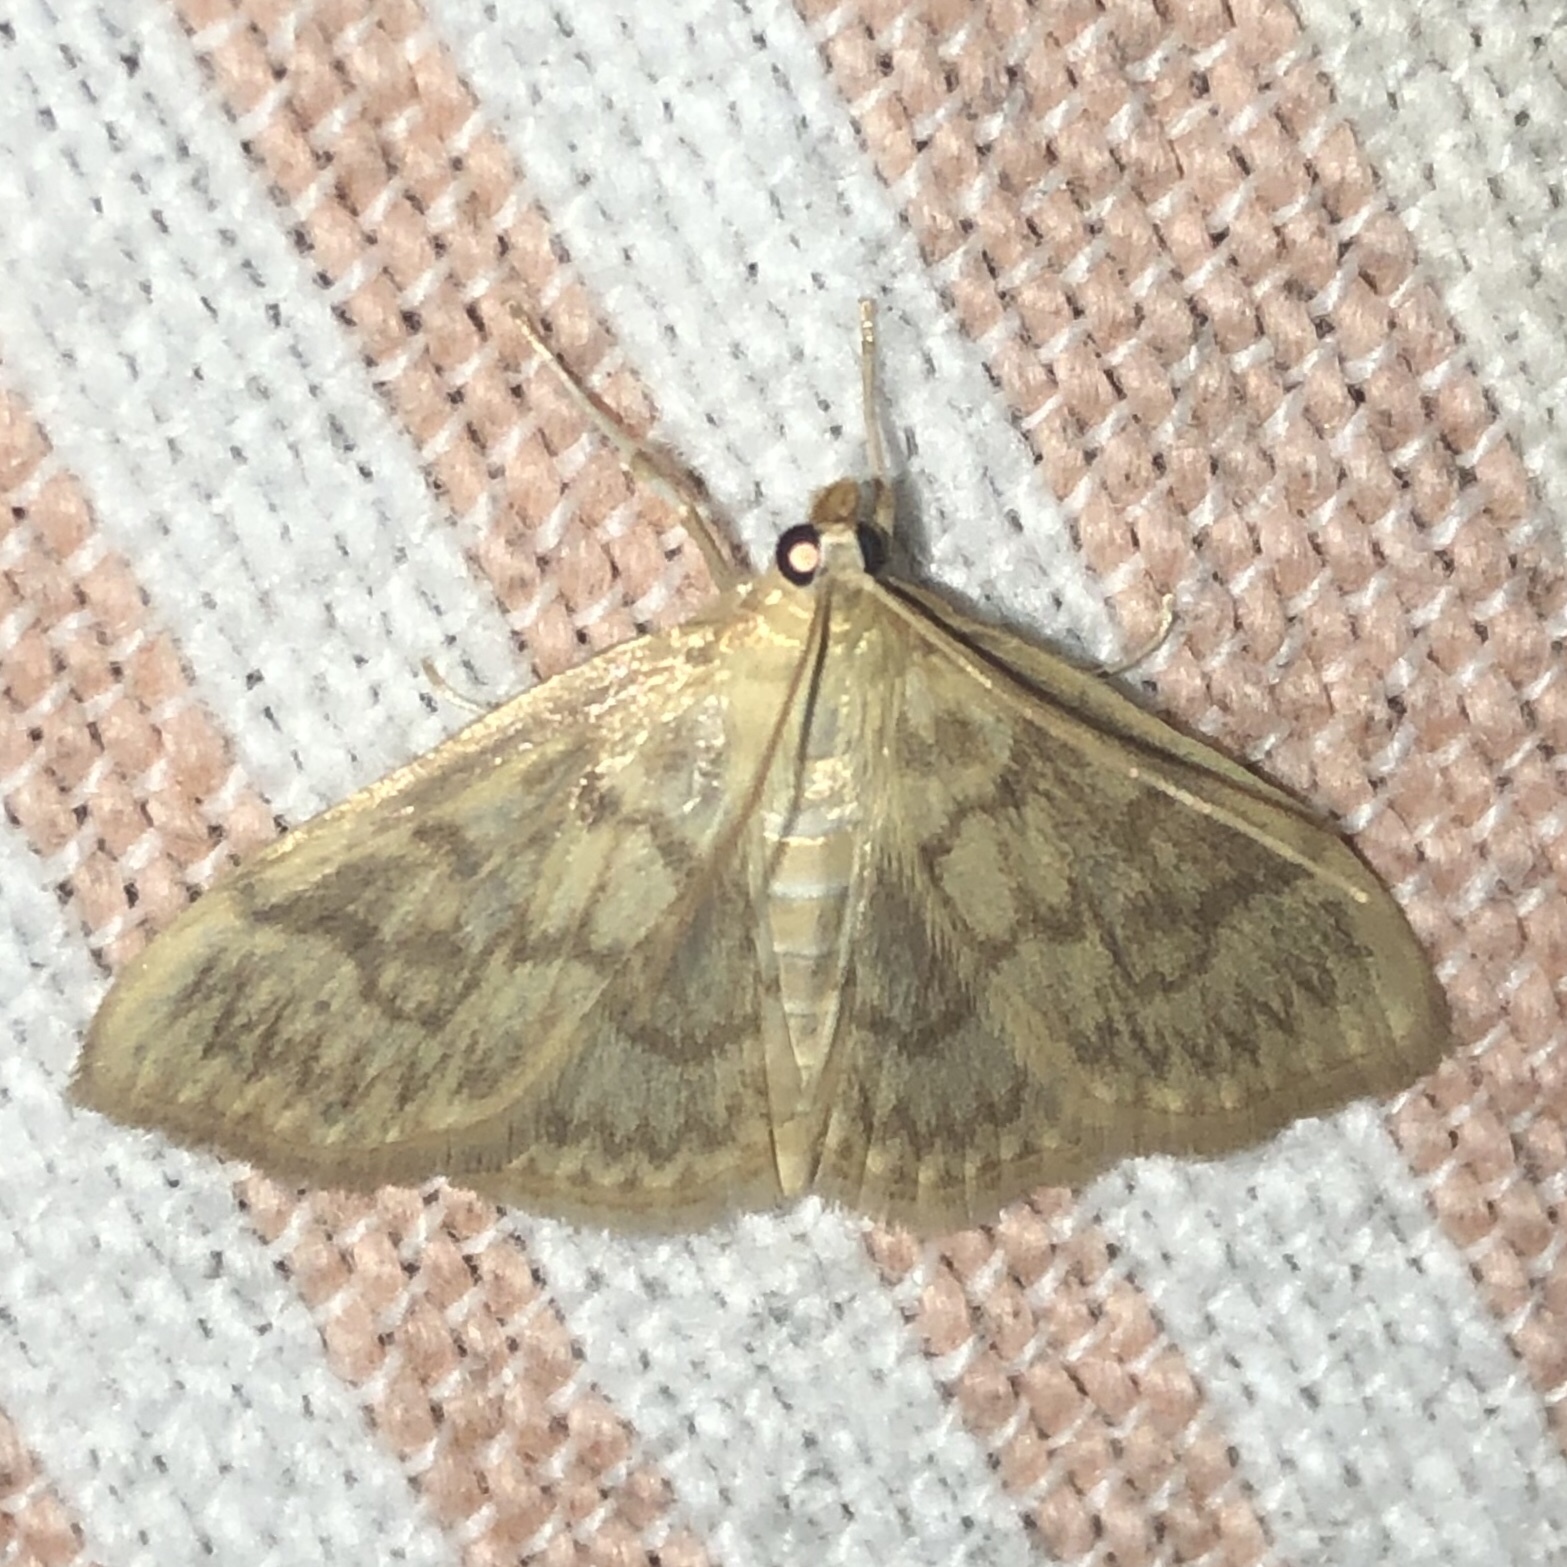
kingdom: Animalia
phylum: Arthropoda
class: Insecta
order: Lepidoptera
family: Crambidae
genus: Crocidophora
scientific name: Crocidophora serratissimalis
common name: Saw-toothed crocidophora moth
